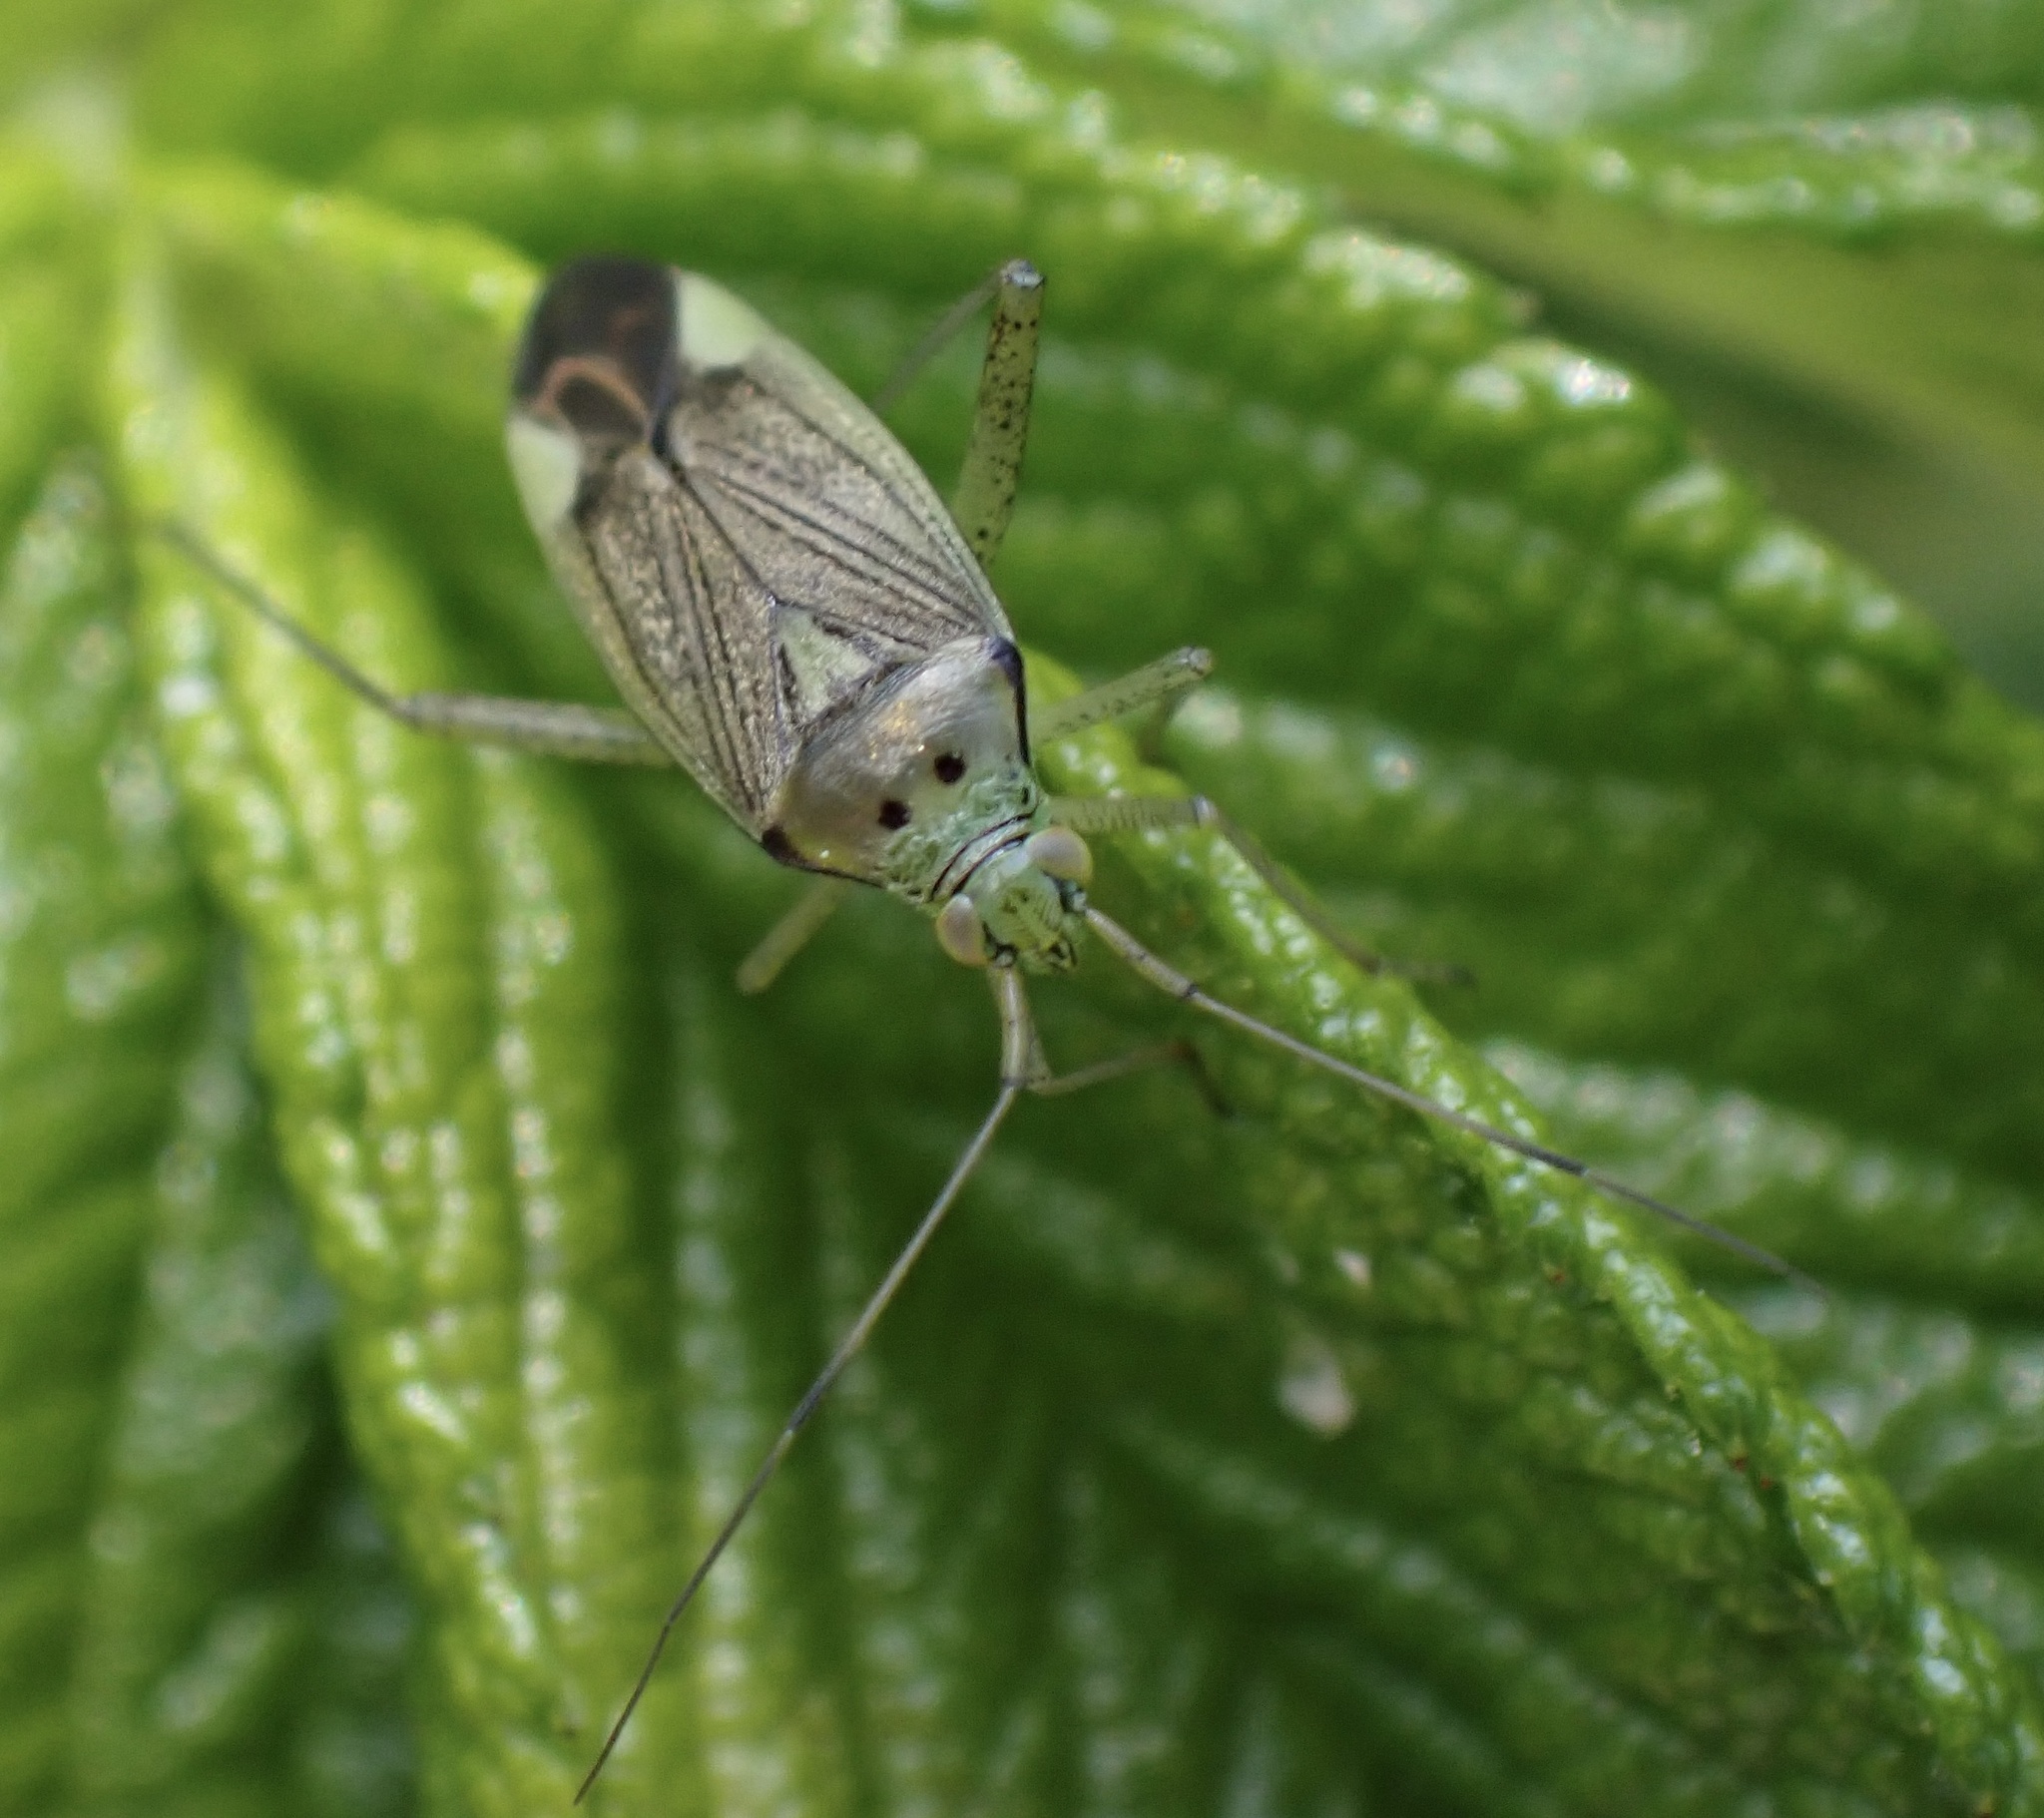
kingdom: Animalia
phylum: Arthropoda
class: Insecta
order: Hemiptera
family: Miridae
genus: Closterotomus
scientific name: Closterotomus trivialis
